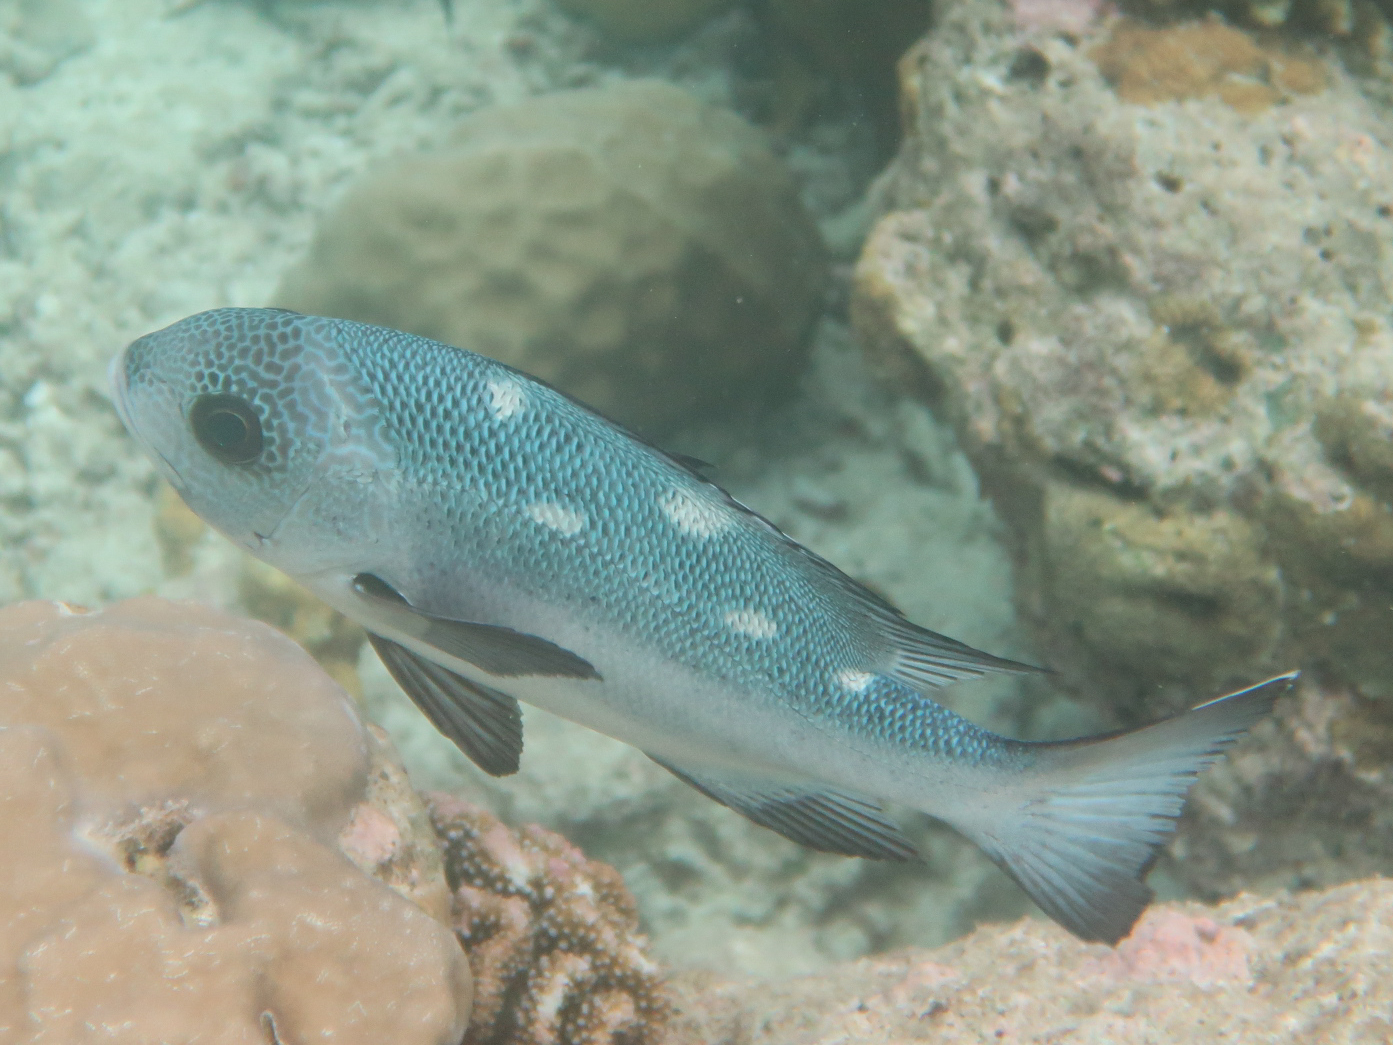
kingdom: Animalia
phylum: Chordata
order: Perciformes
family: Lutjanidae
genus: Macolor
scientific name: Macolor niger
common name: Black snapper
